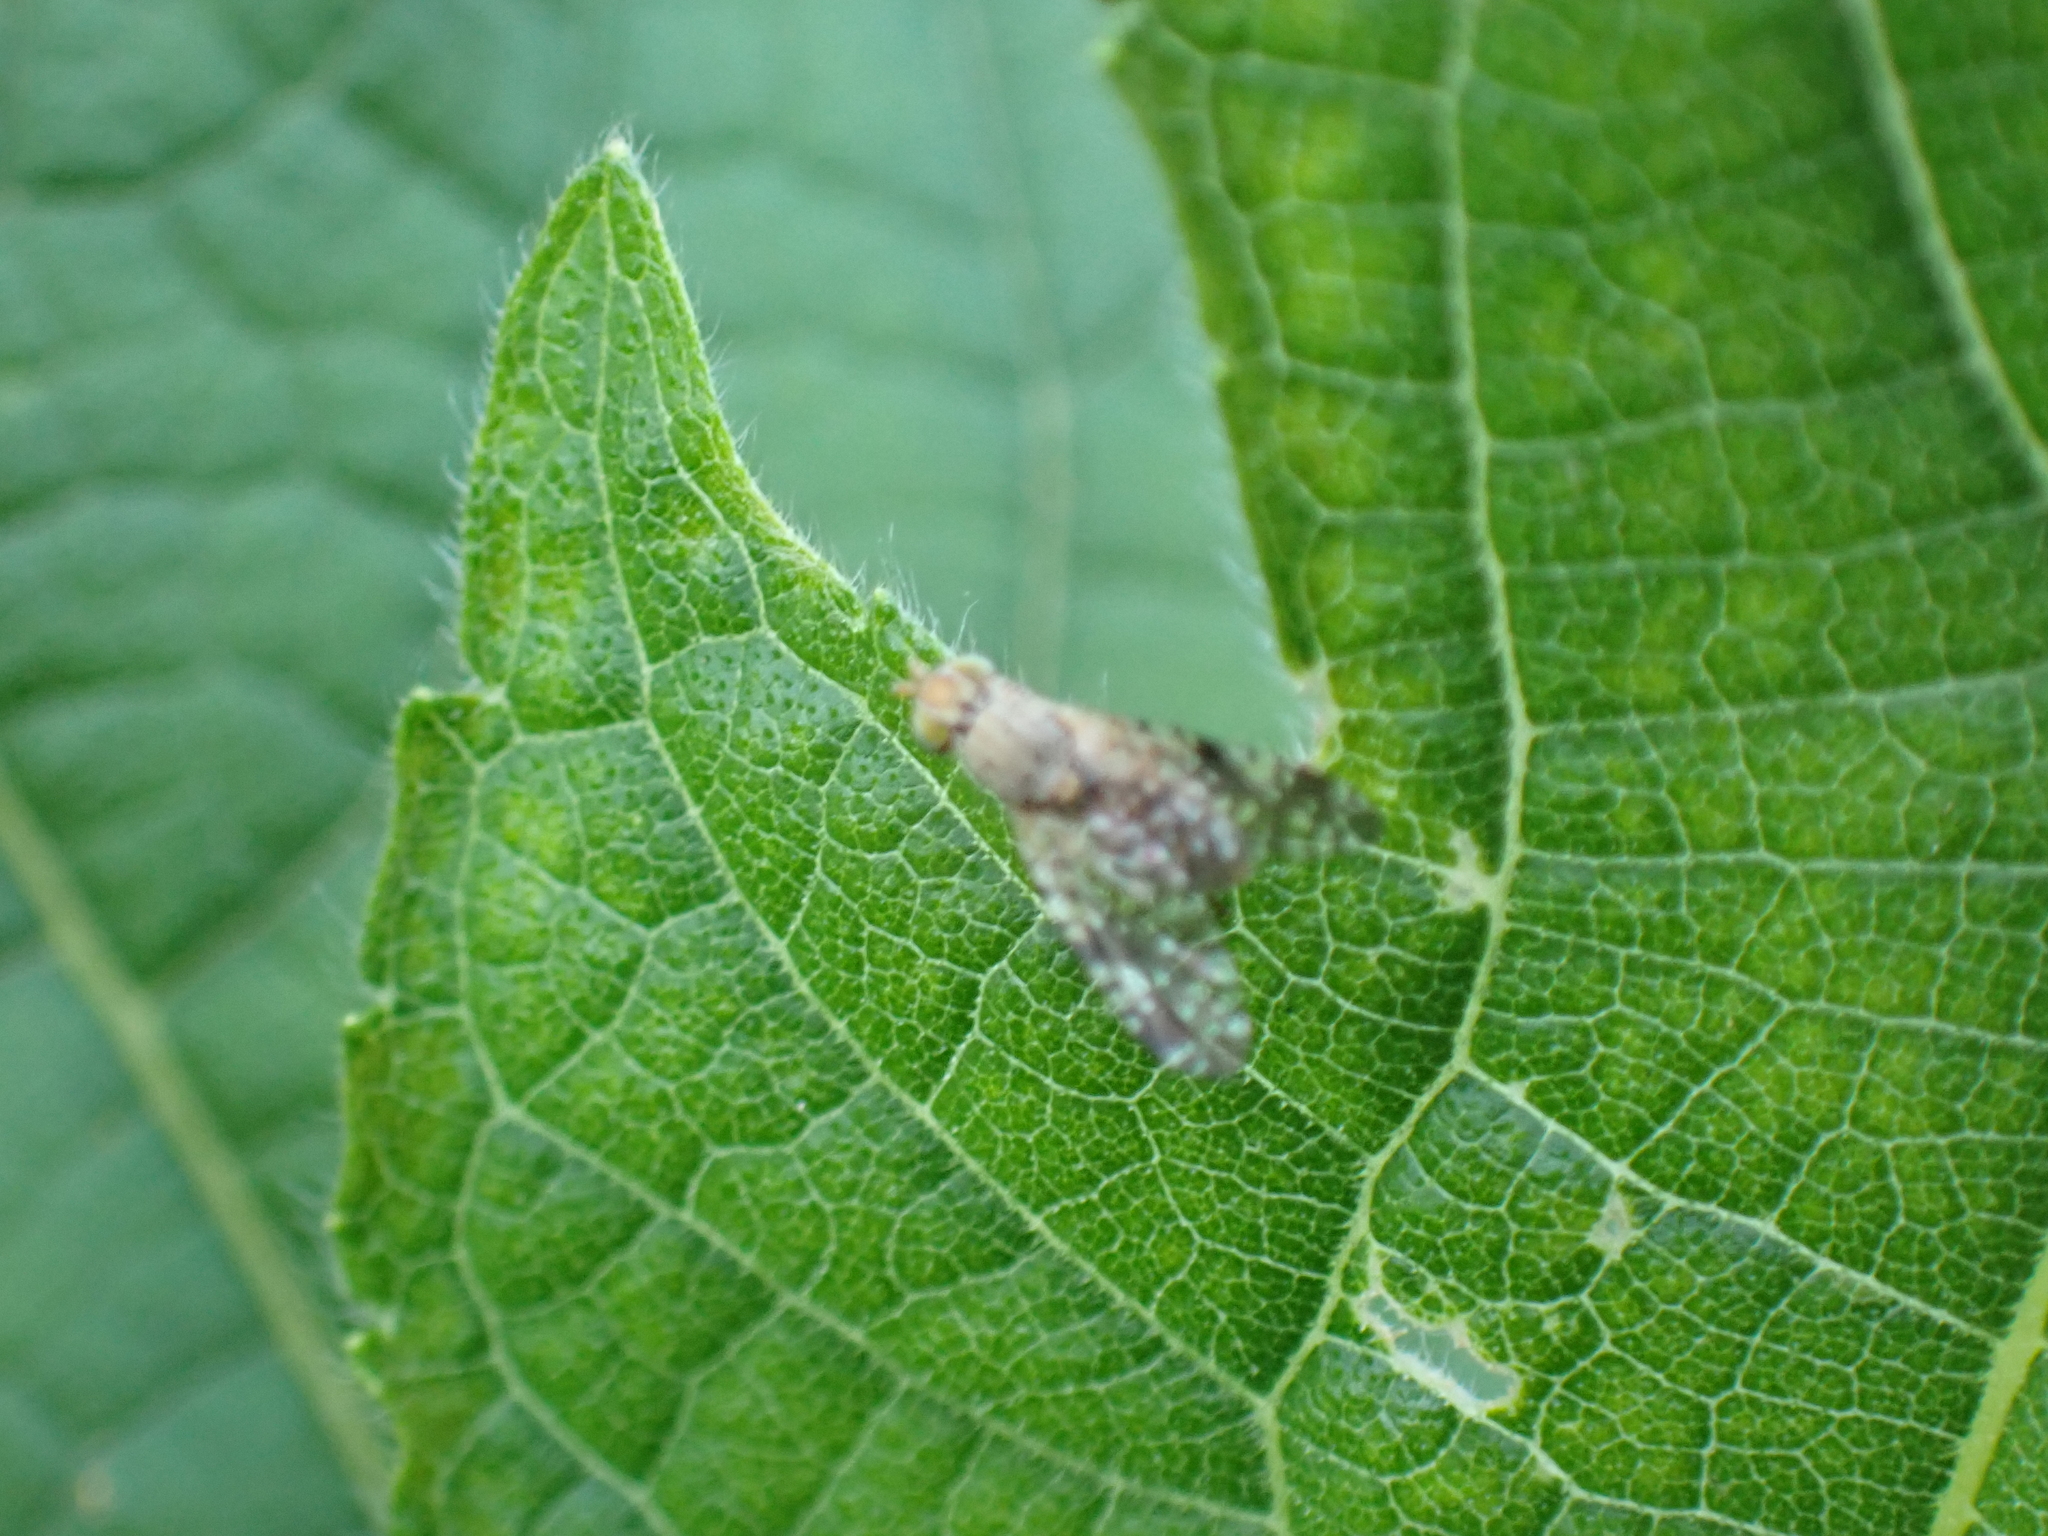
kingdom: Animalia
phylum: Arthropoda
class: Insecta
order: Diptera
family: Tephritidae
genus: Neotephritis
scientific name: Neotephritis finalis
